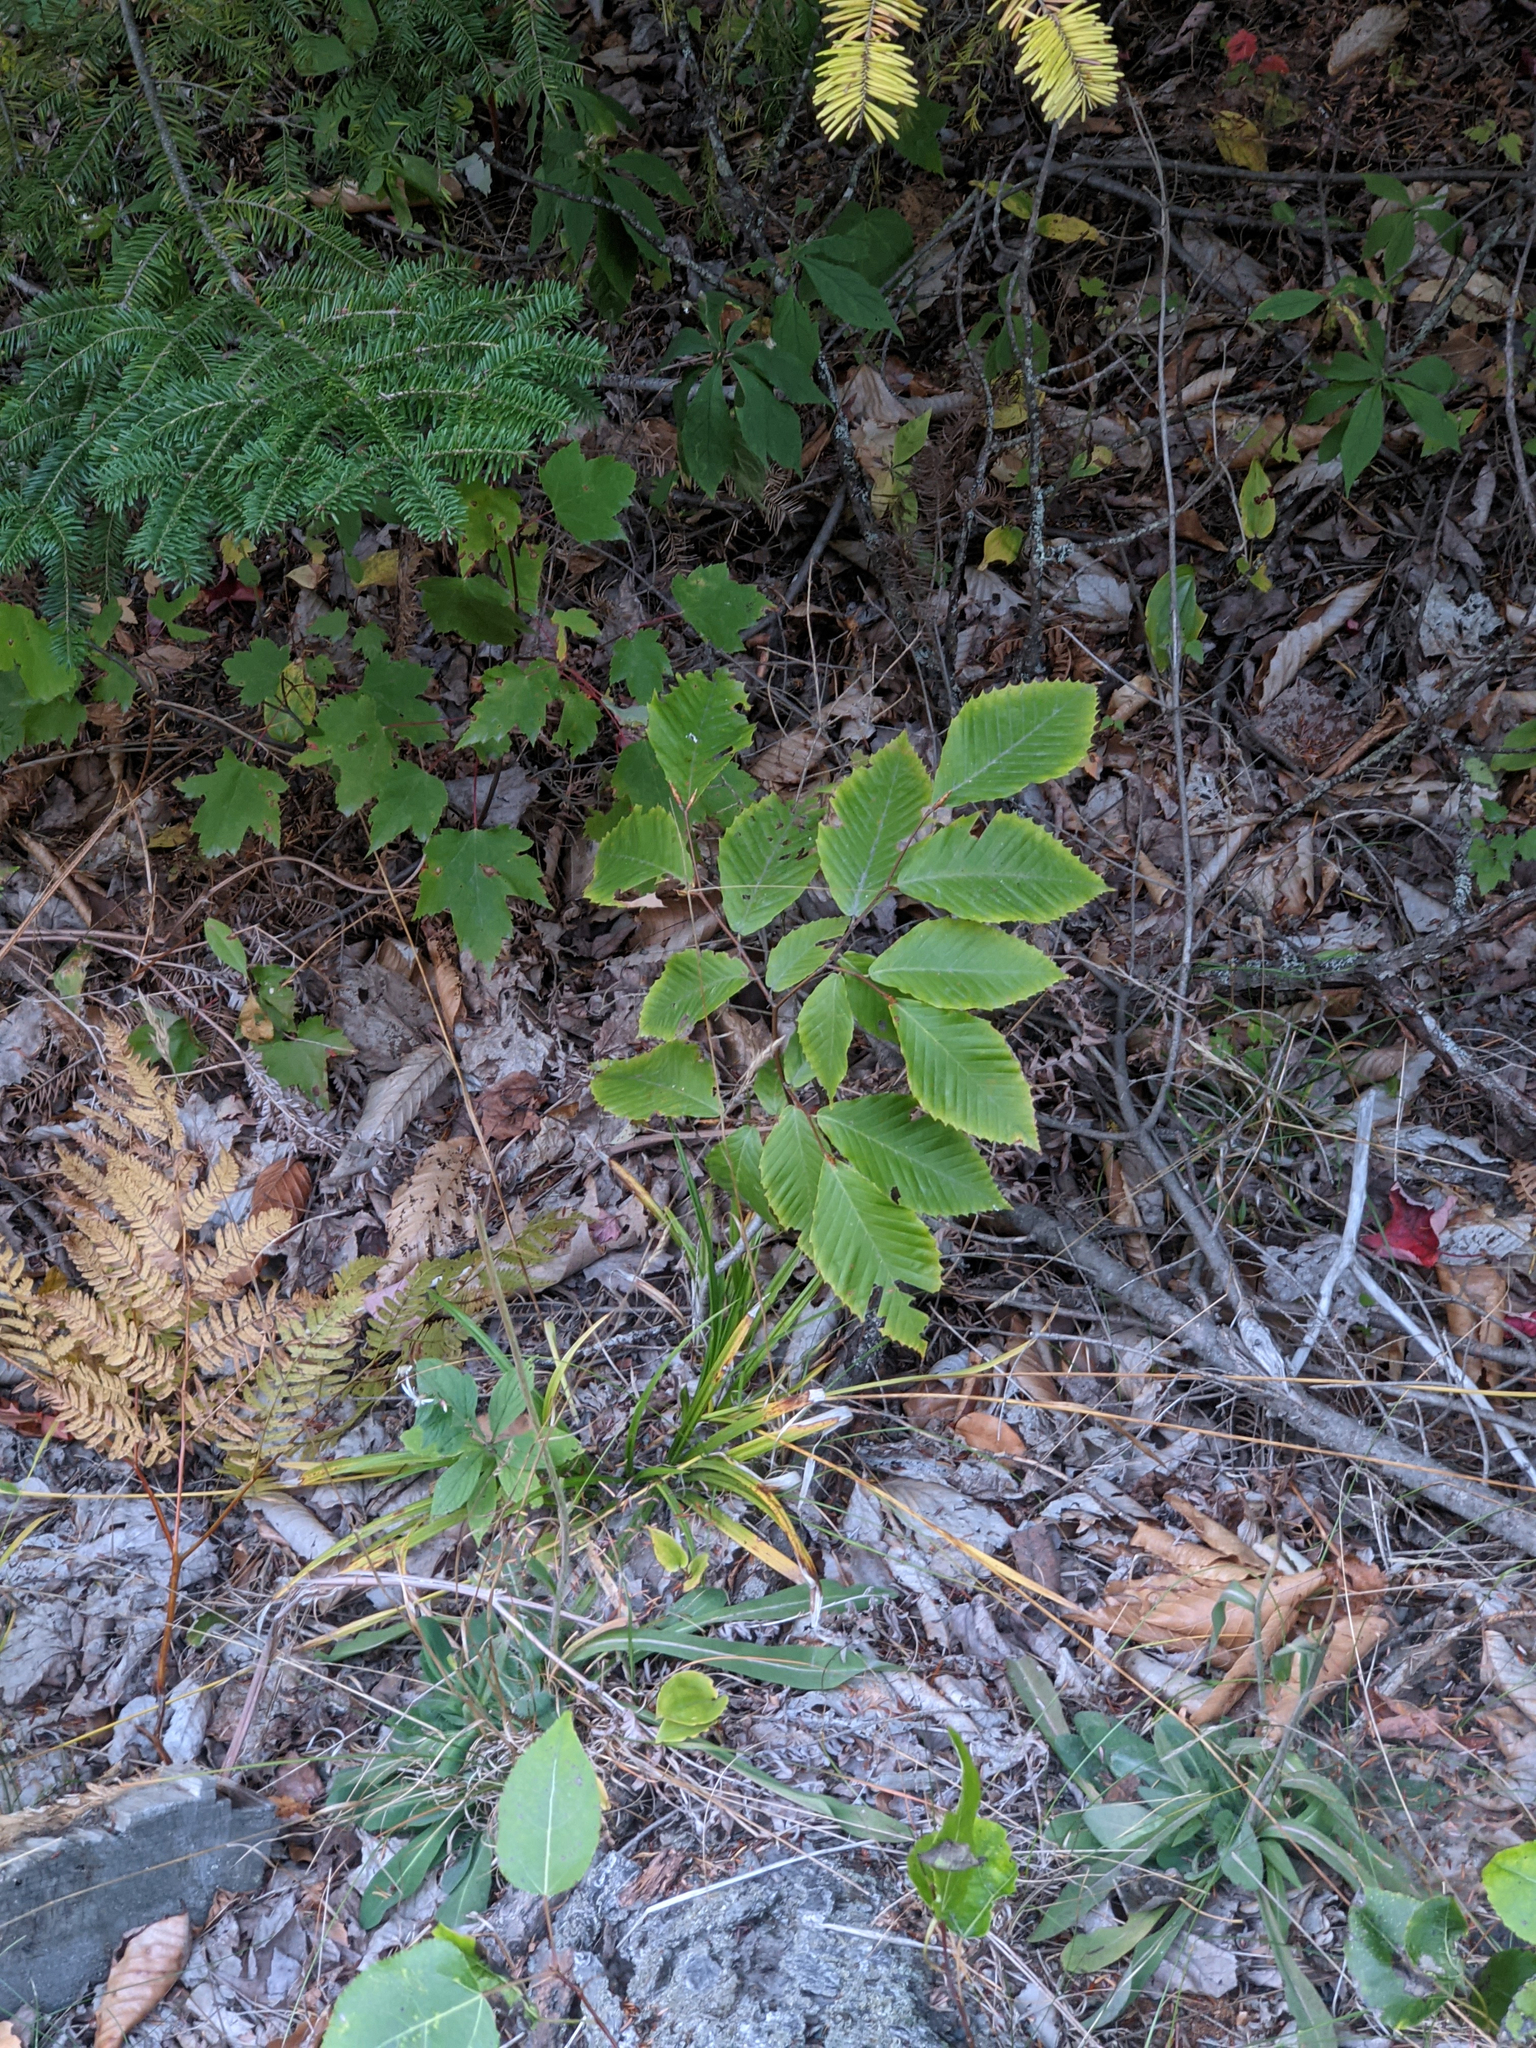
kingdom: Plantae
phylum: Tracheophyta
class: Magnoliopsida
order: Fagales
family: Fagaceae
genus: Fagus
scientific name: Fagus grandifolia
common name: American beech
